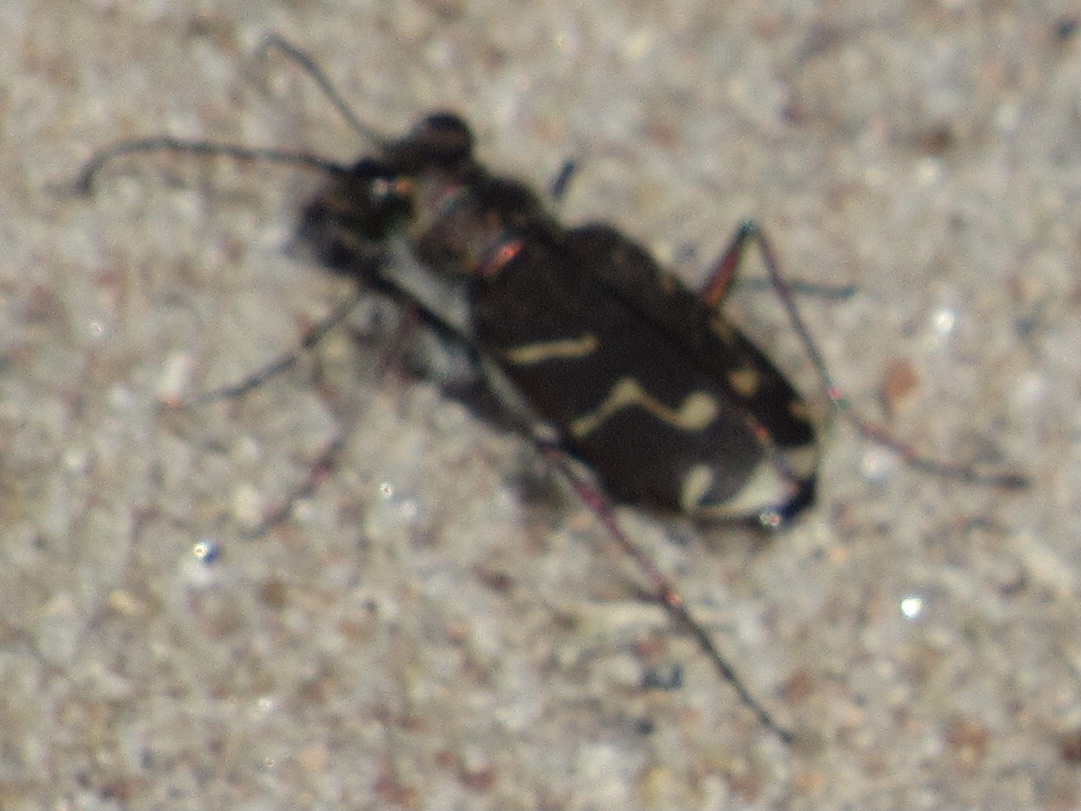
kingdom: Animalia
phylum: Arthropoda
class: Insecta
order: Coleoptera
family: Carabidae
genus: Cicindela
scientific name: Cicindela tranquebarica
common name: Oblique-lined tiger beetle
